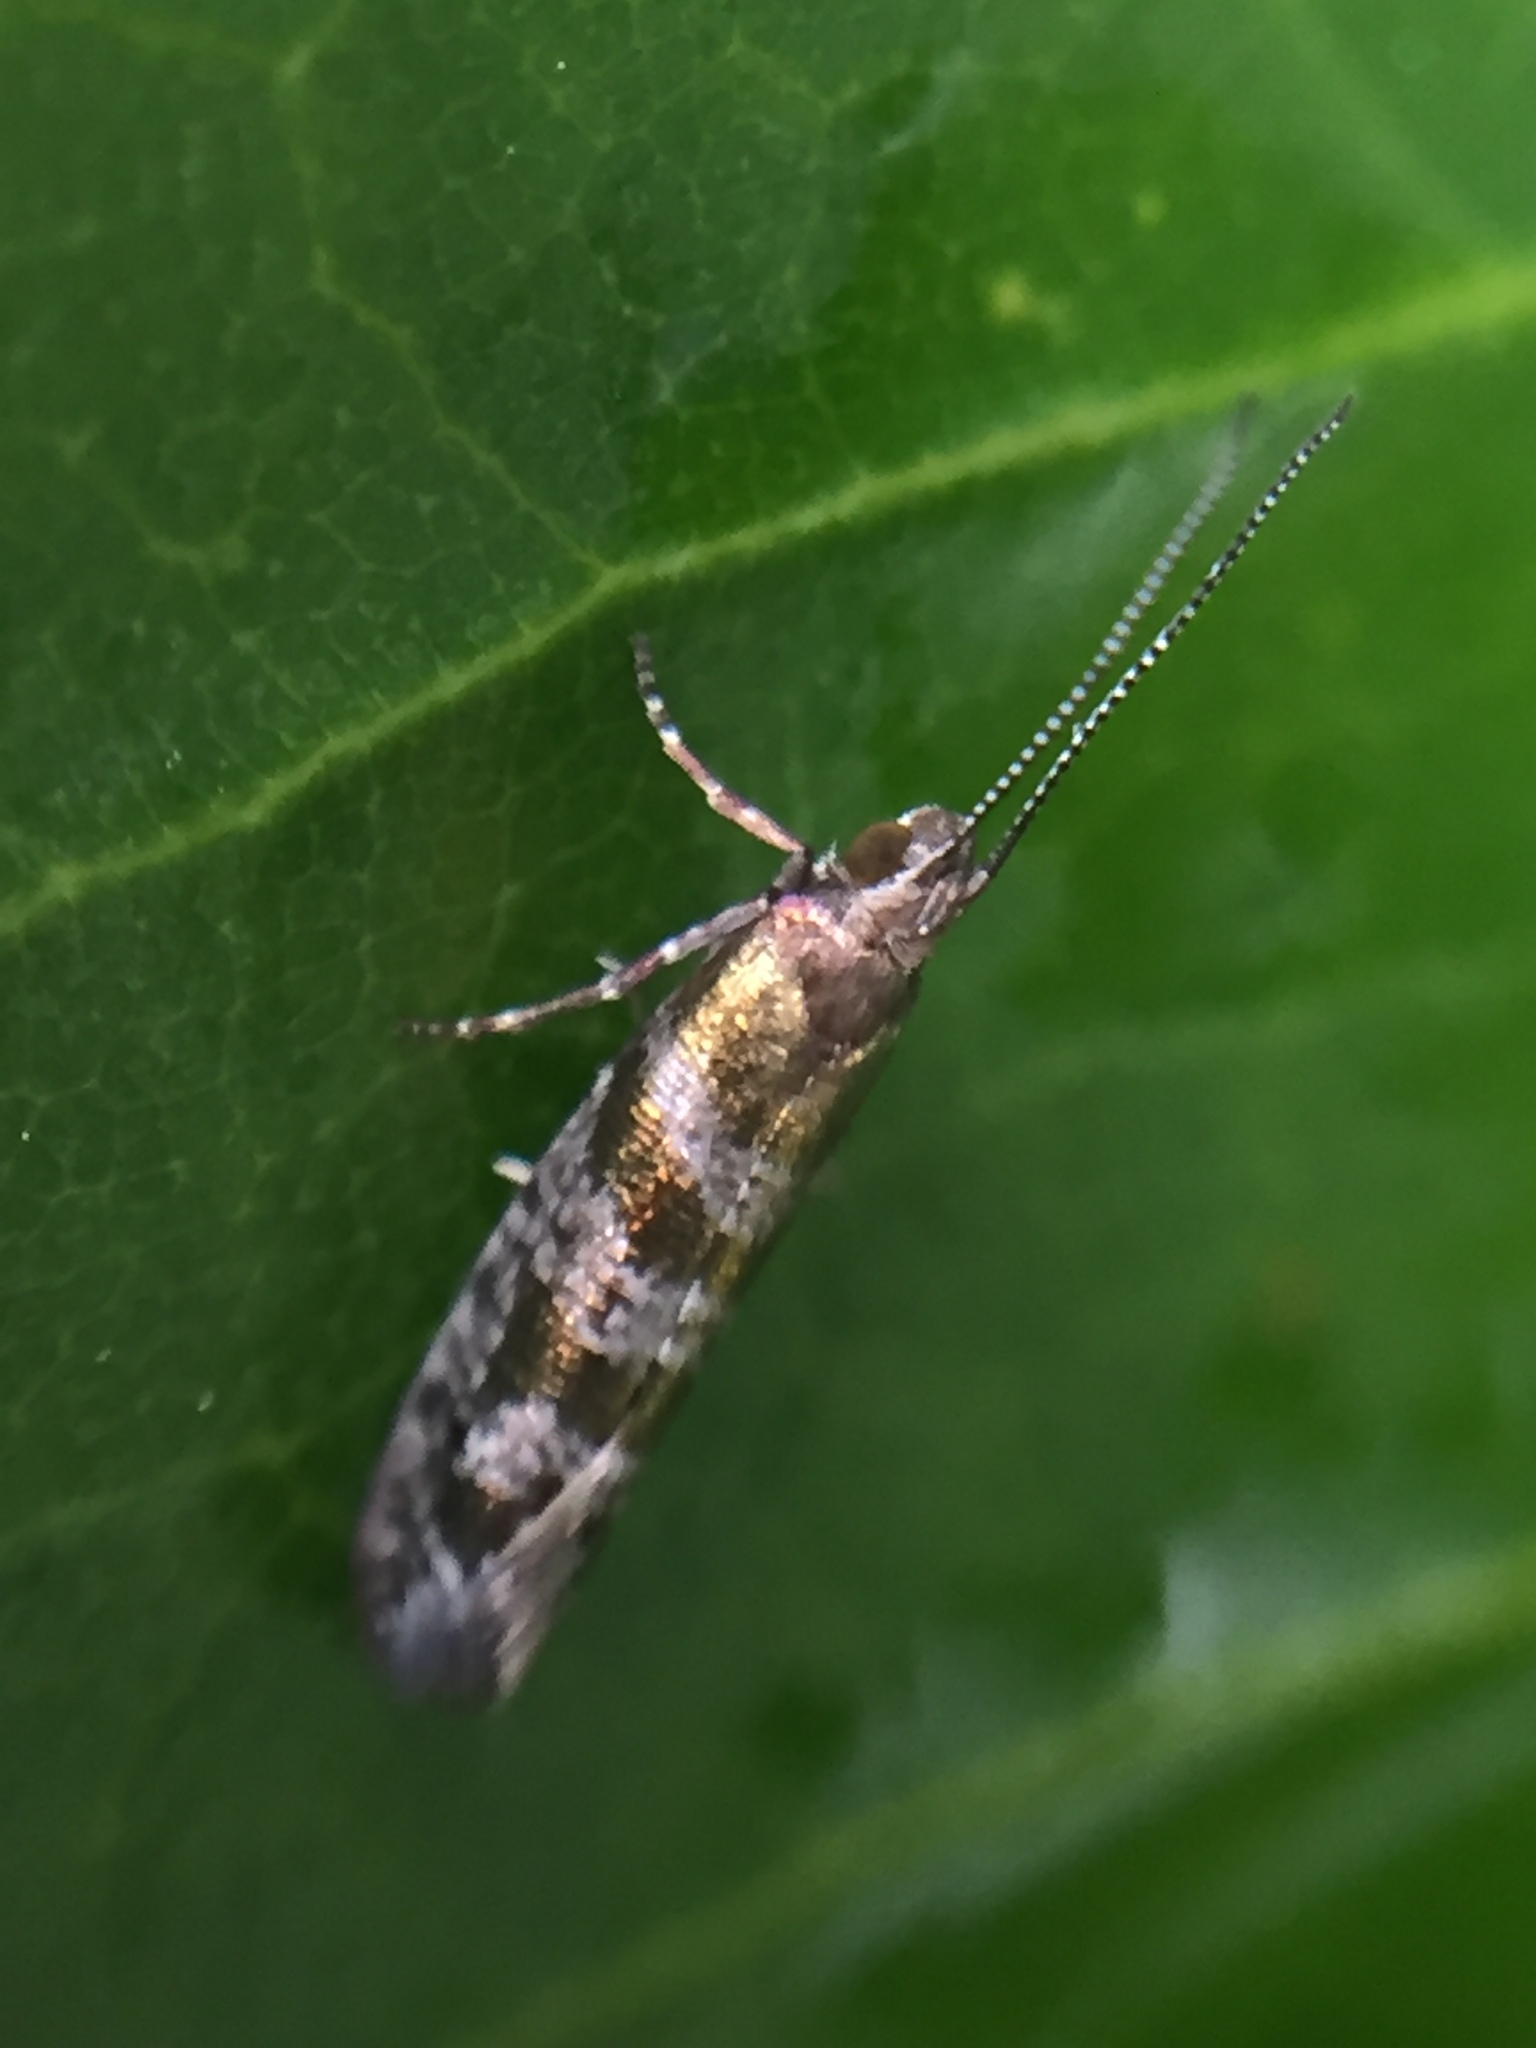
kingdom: Animalia
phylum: Arthropoda
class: Insecta
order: Lepidoptera
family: Glyphipterigidae
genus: Chrysorthenches
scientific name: Chrysorthenches drosochalca
